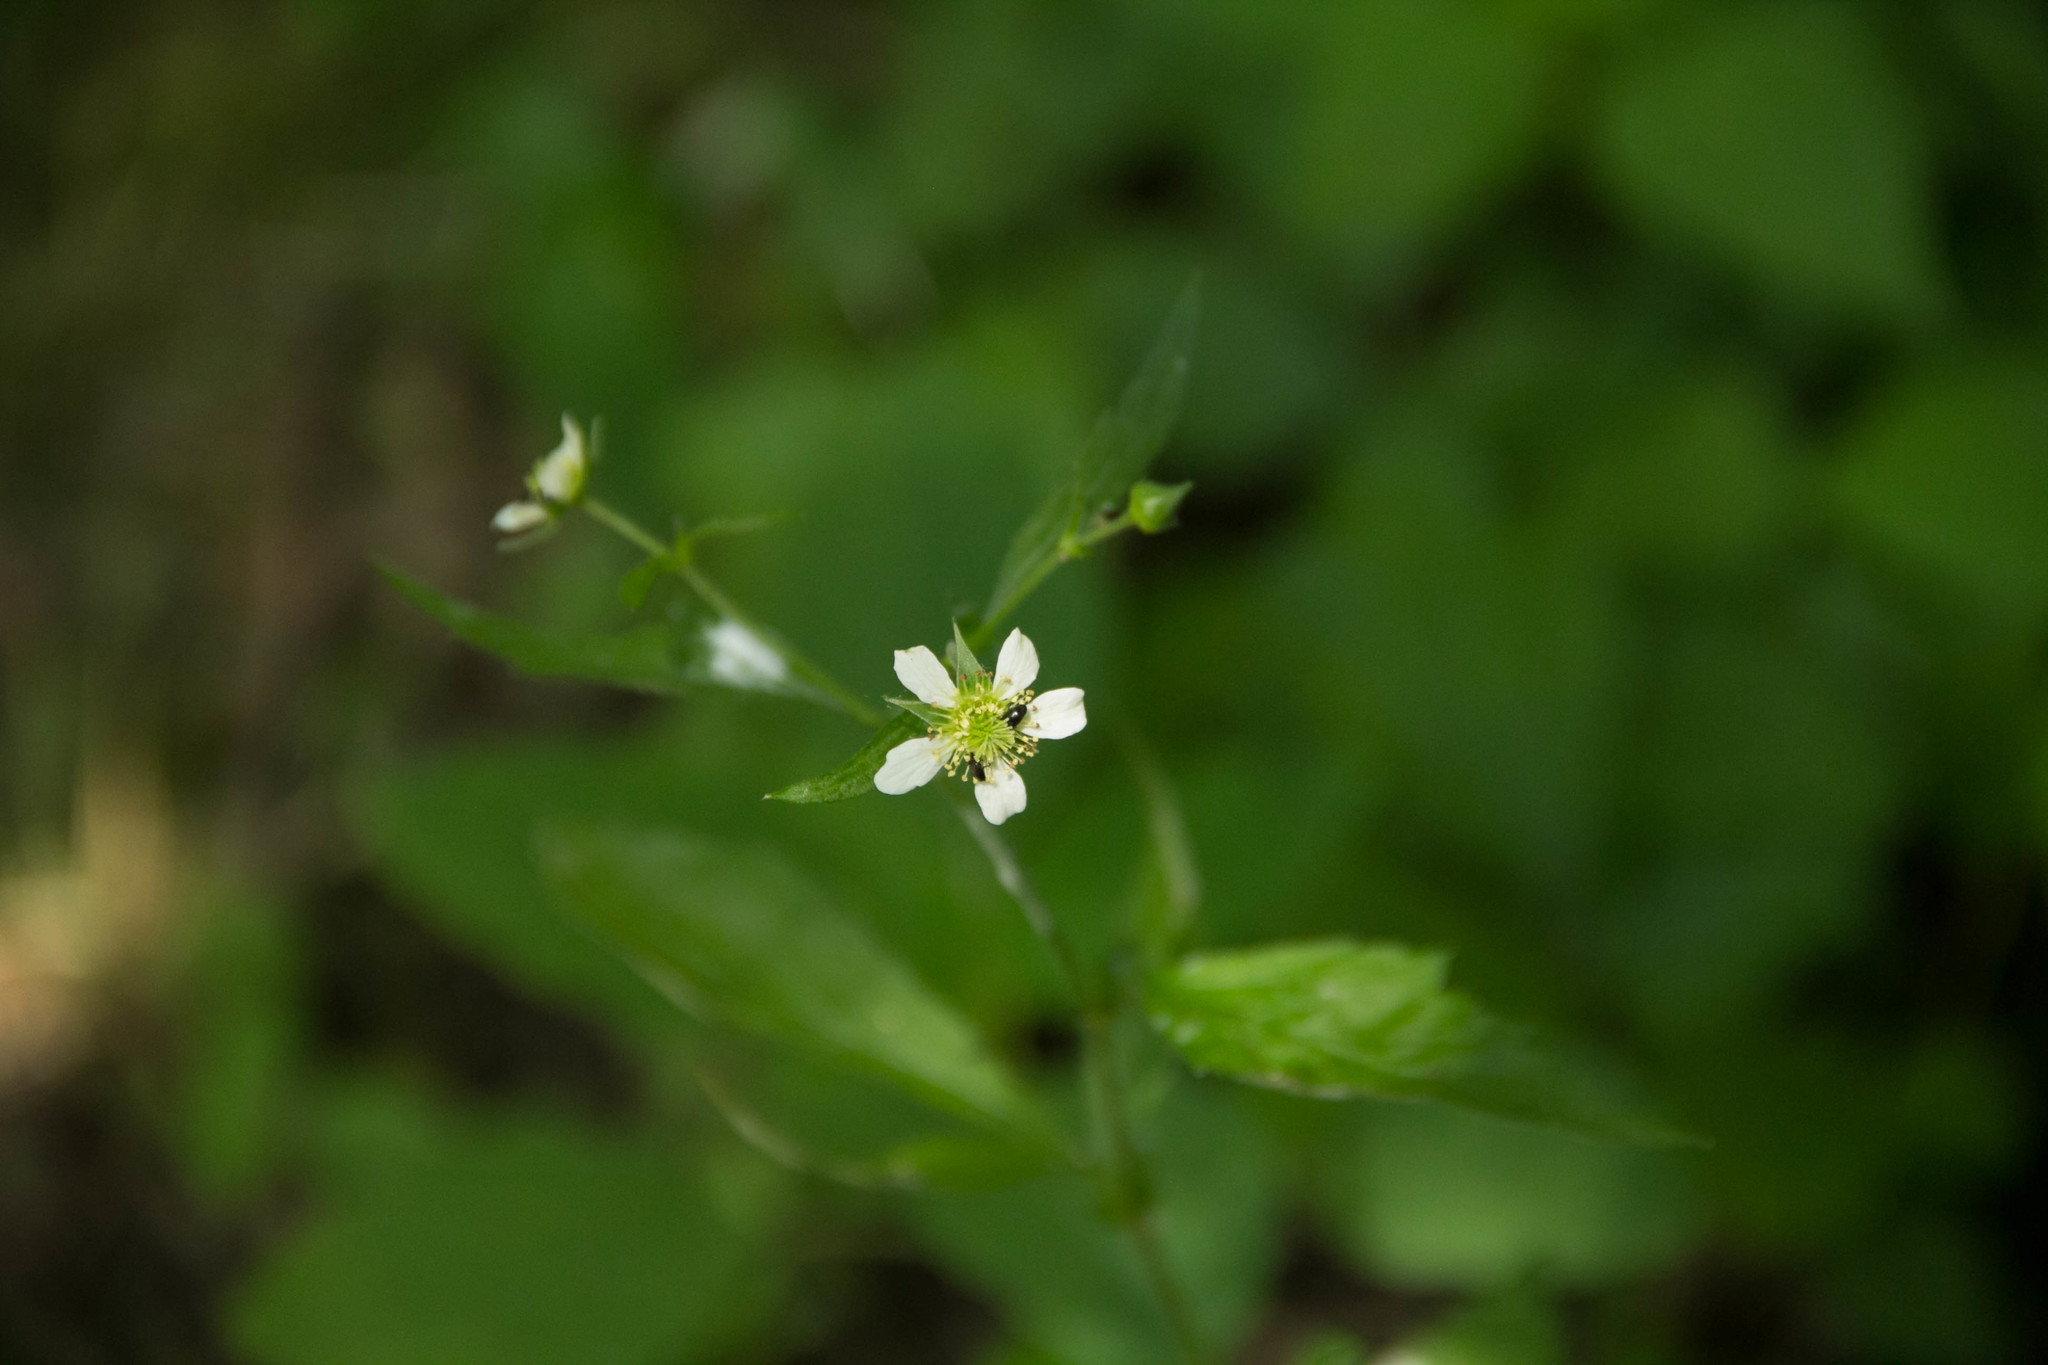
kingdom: Plantae
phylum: Tracheophyta
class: Magnoliopsida
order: Rosales
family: Rosaceae
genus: Geum
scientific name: Geum canadense
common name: White avens
